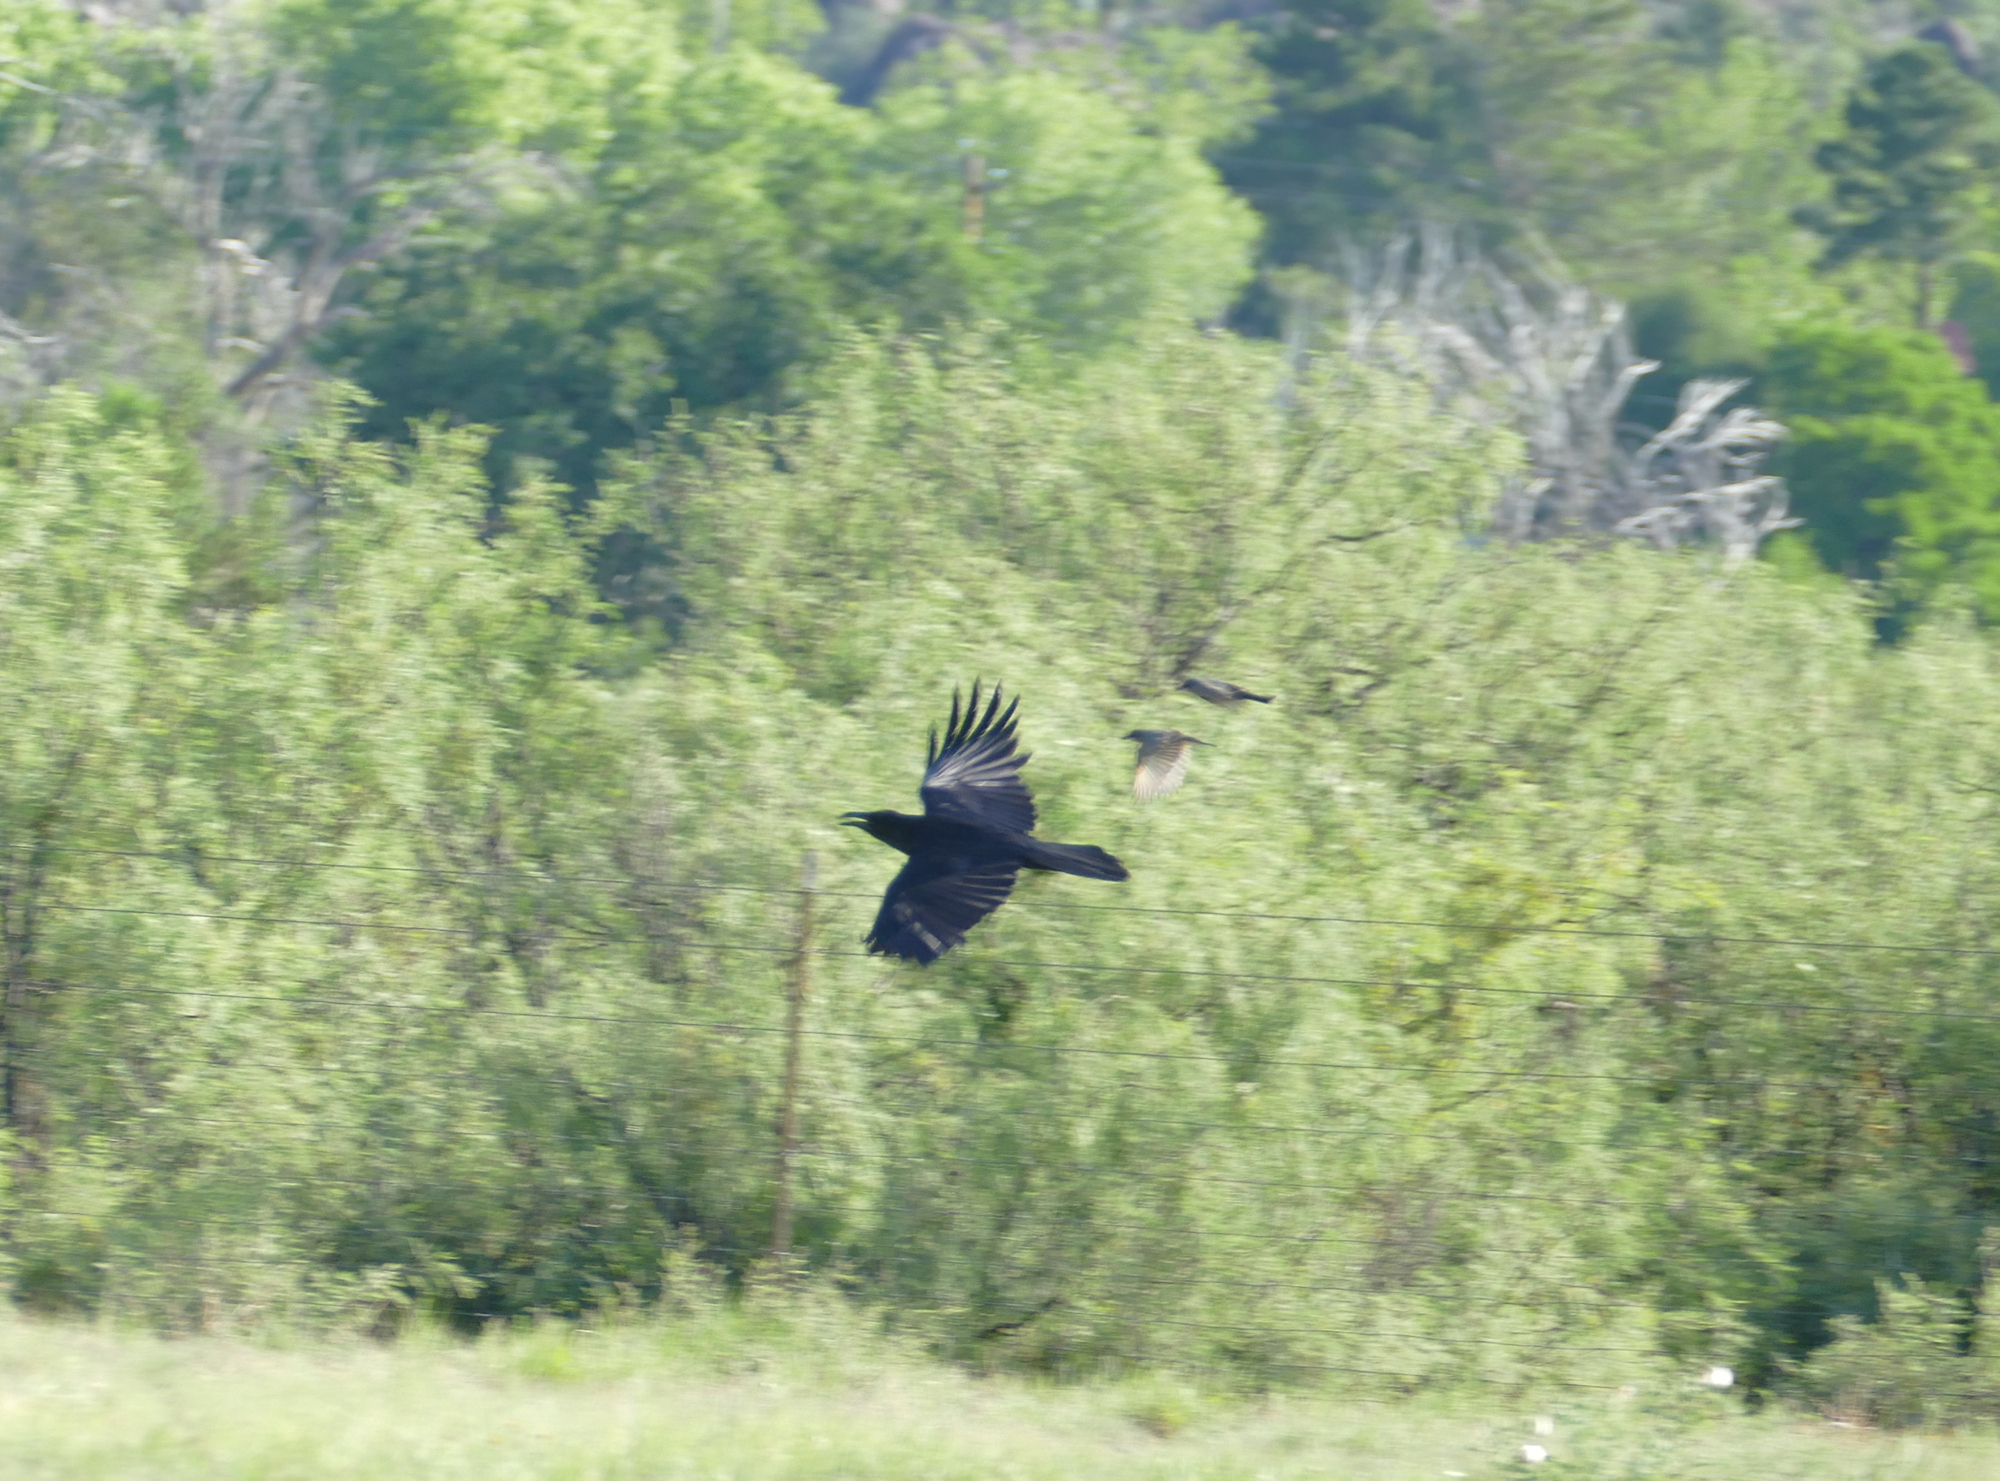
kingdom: Animalia
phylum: Chordata
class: Aves
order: Passeriformes
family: Corvidae
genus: Corvus
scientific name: Corvus corax
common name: Common raven
